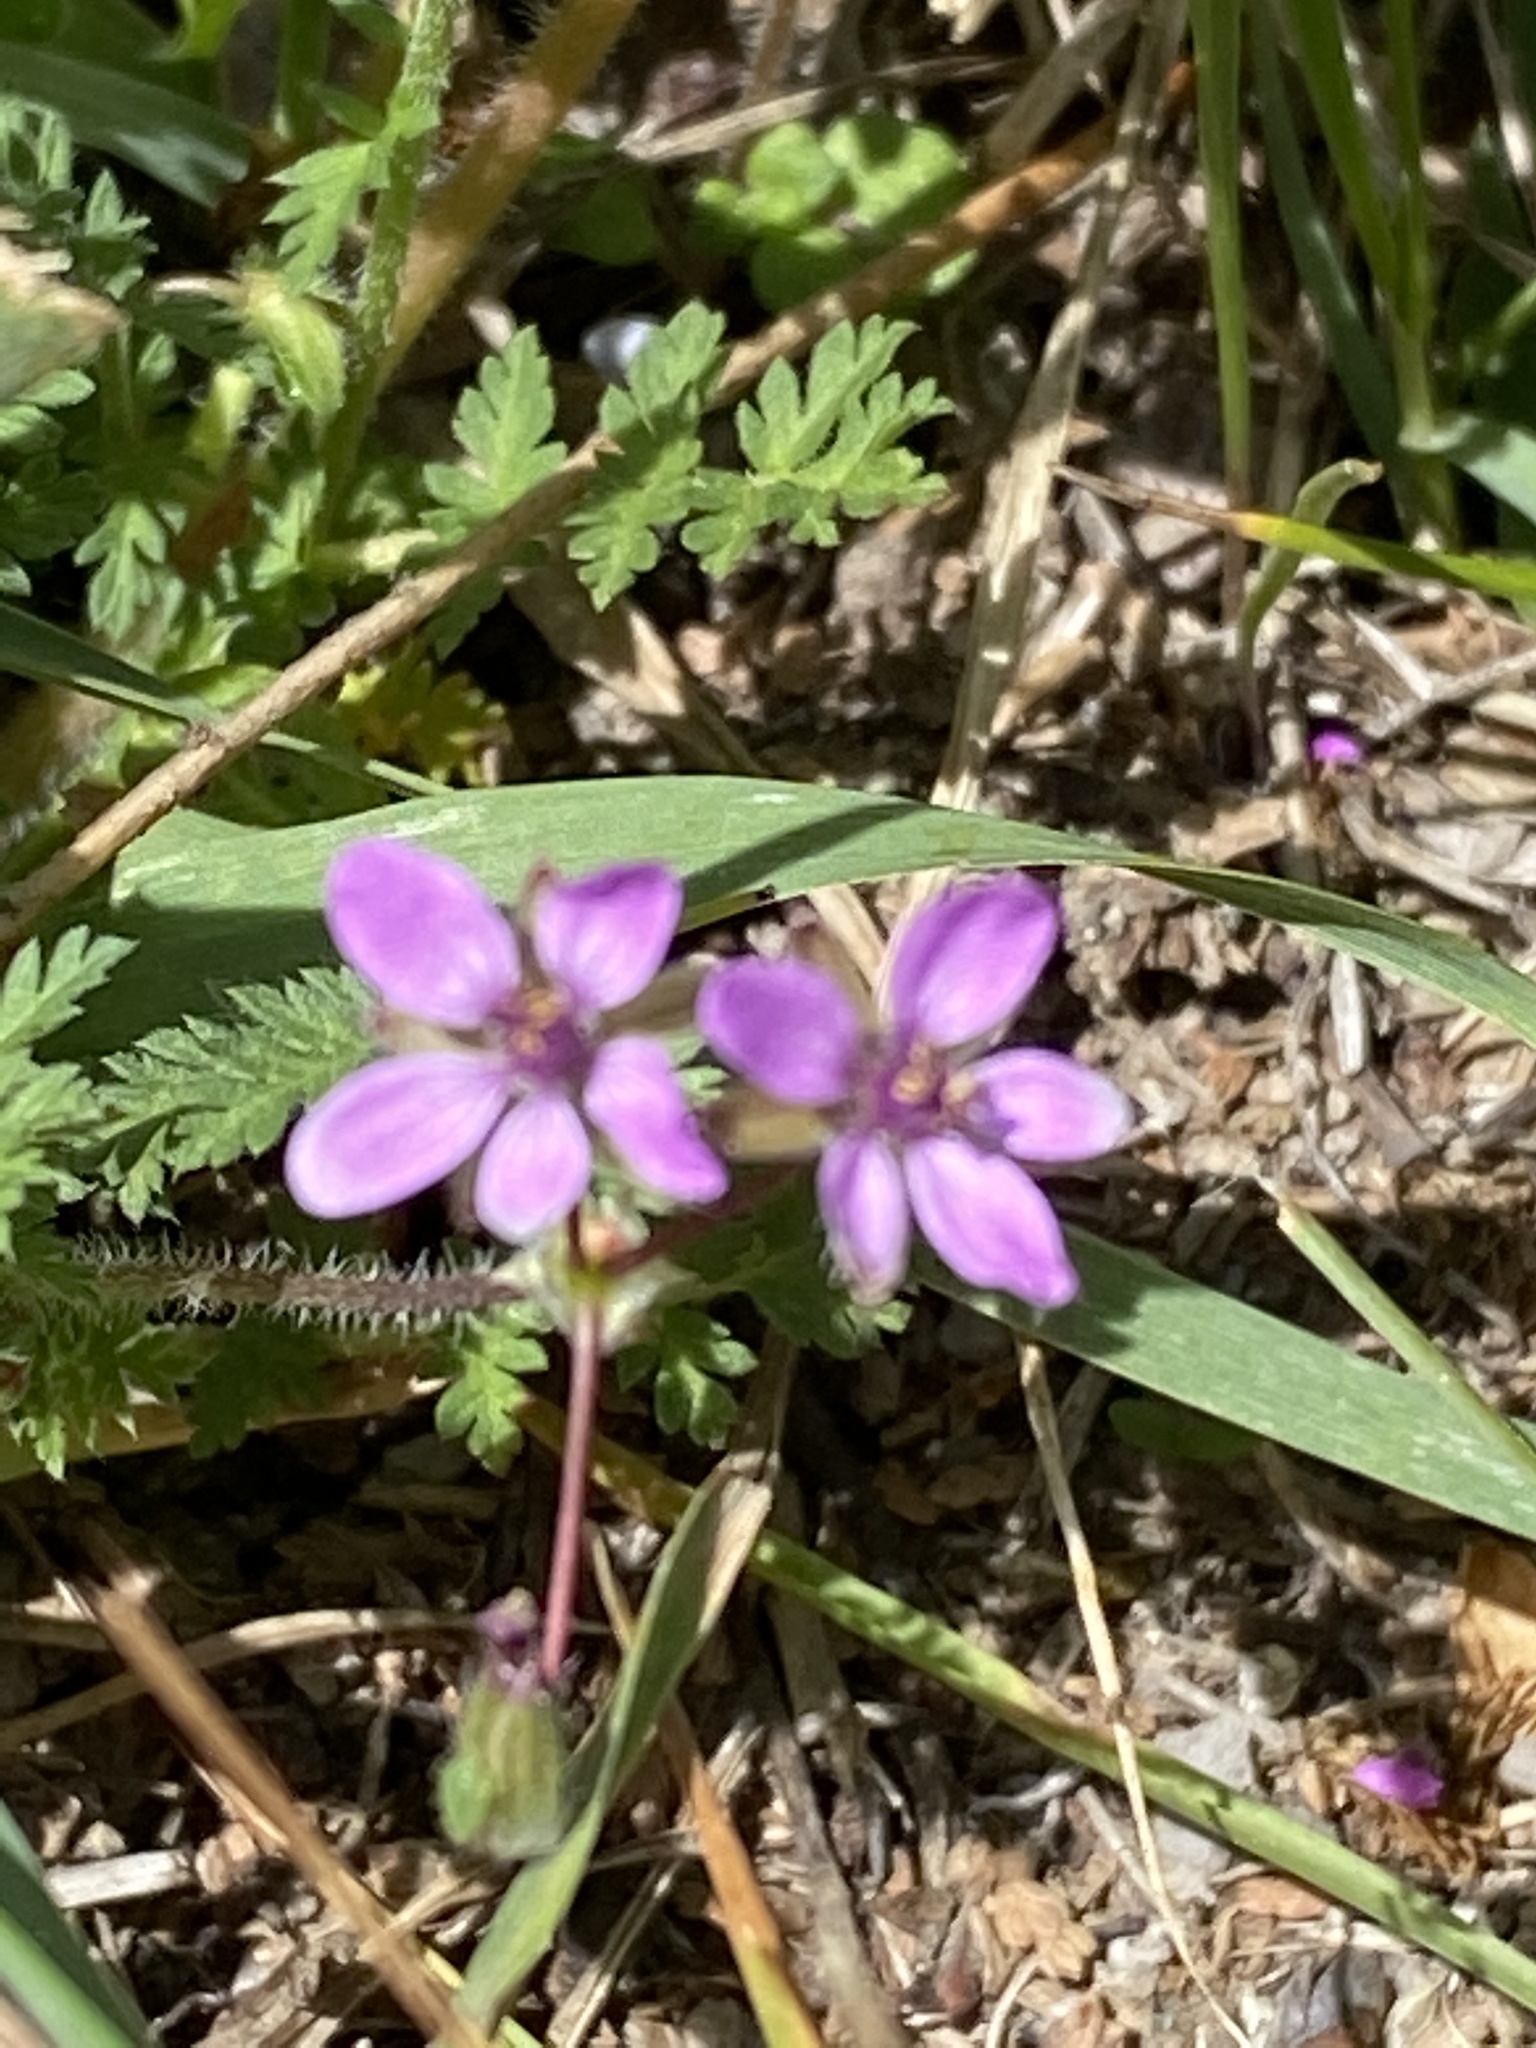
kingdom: Plantae
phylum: Tracheophyta
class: Magnoliopsida
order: Geraniales
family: Geraniaceae
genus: Erodium
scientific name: Erodium cicutarium
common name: Common stork's-bill
